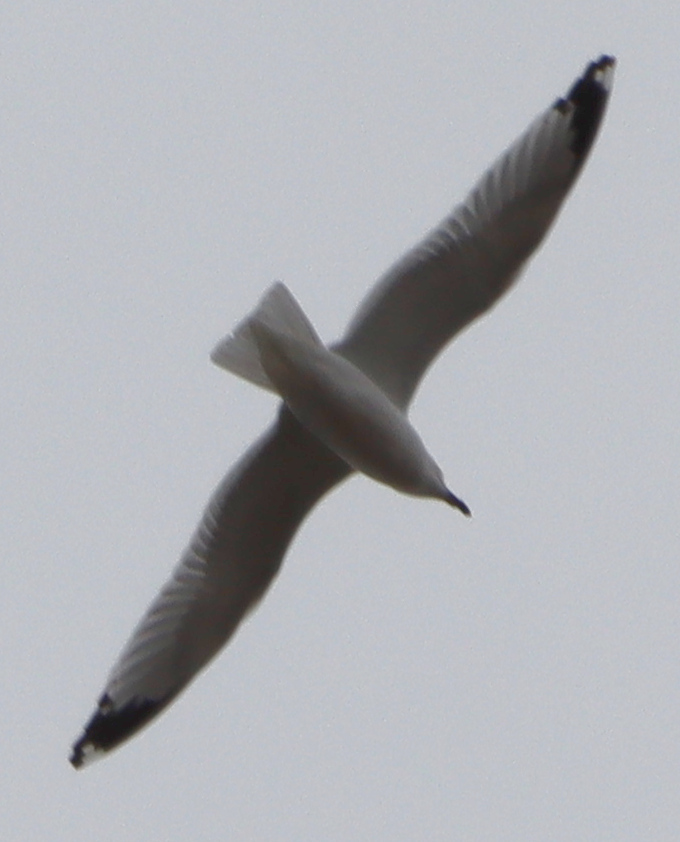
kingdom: Animalia
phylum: Chordata
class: Aves
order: Charadriiformes
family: Laridae
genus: Larus
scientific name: Larus delawarensis
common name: Ring-billed gull
